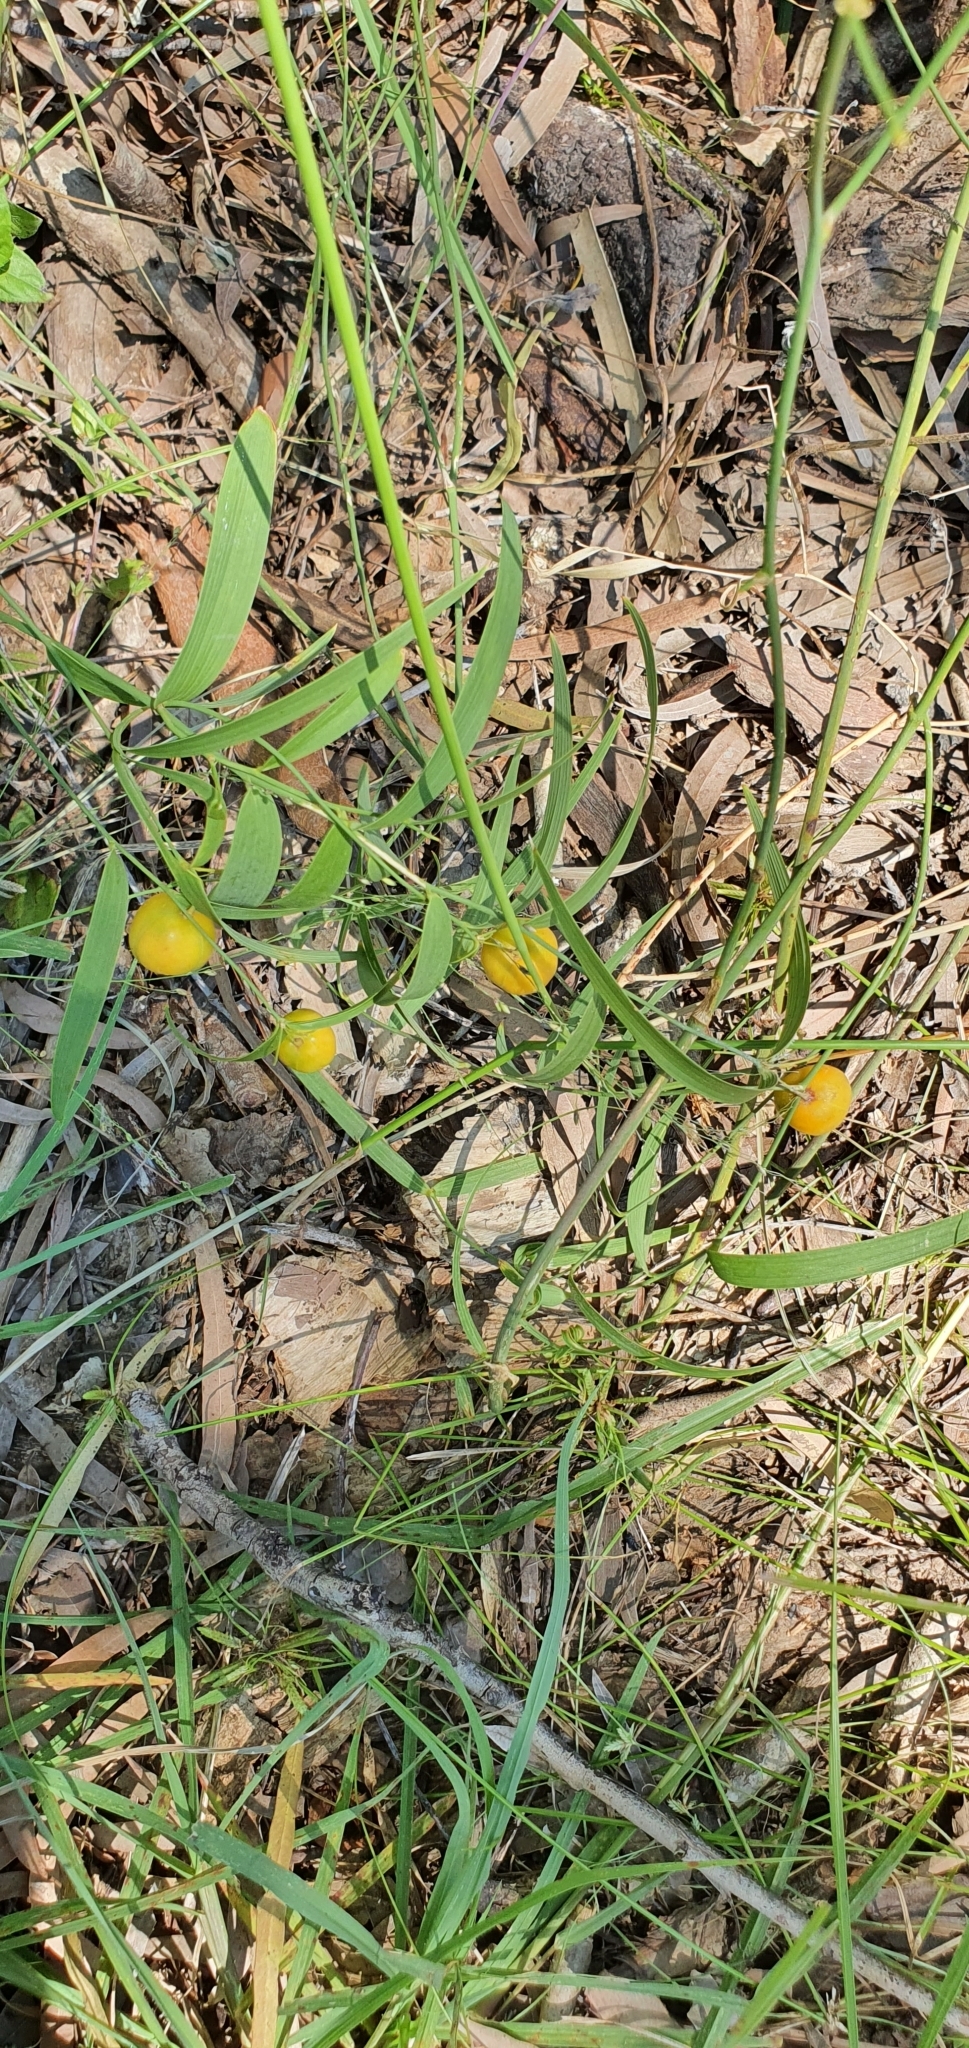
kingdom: Plantae
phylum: Tracheophyta
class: Liliopsida
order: Asparagales
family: Asparagaceae
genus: Eustrephus
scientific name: Eustrephus latifolius
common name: Orangevine
